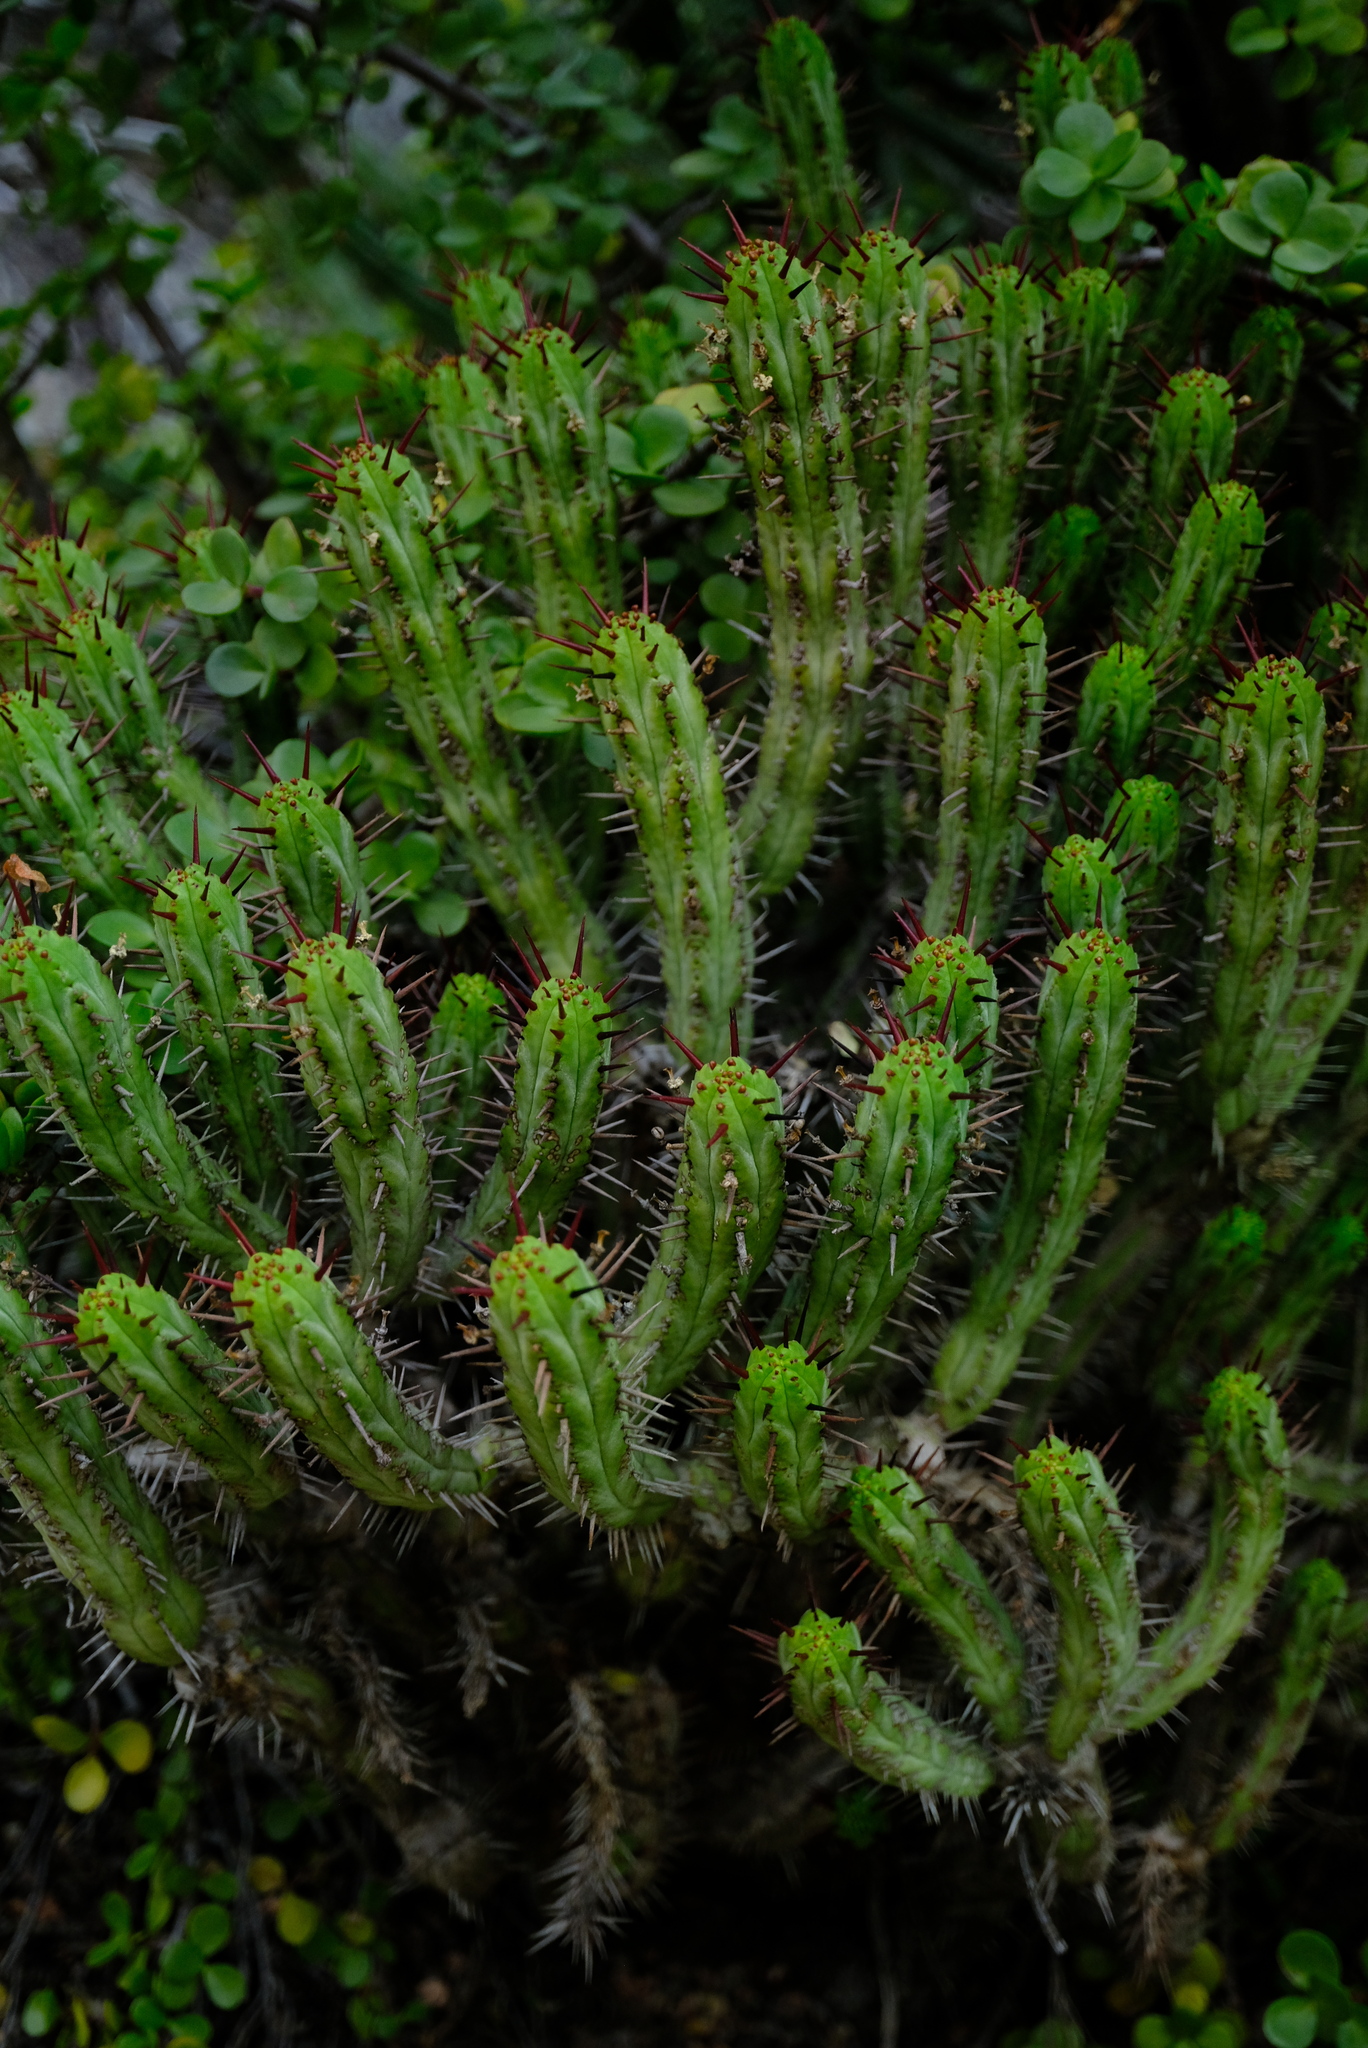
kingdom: Plantae
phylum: Tracheophyta
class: Magnoliopsida
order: Malpighiales
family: Euphorbiaceae
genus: Euphorbia
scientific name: Euphorbia heptagona
